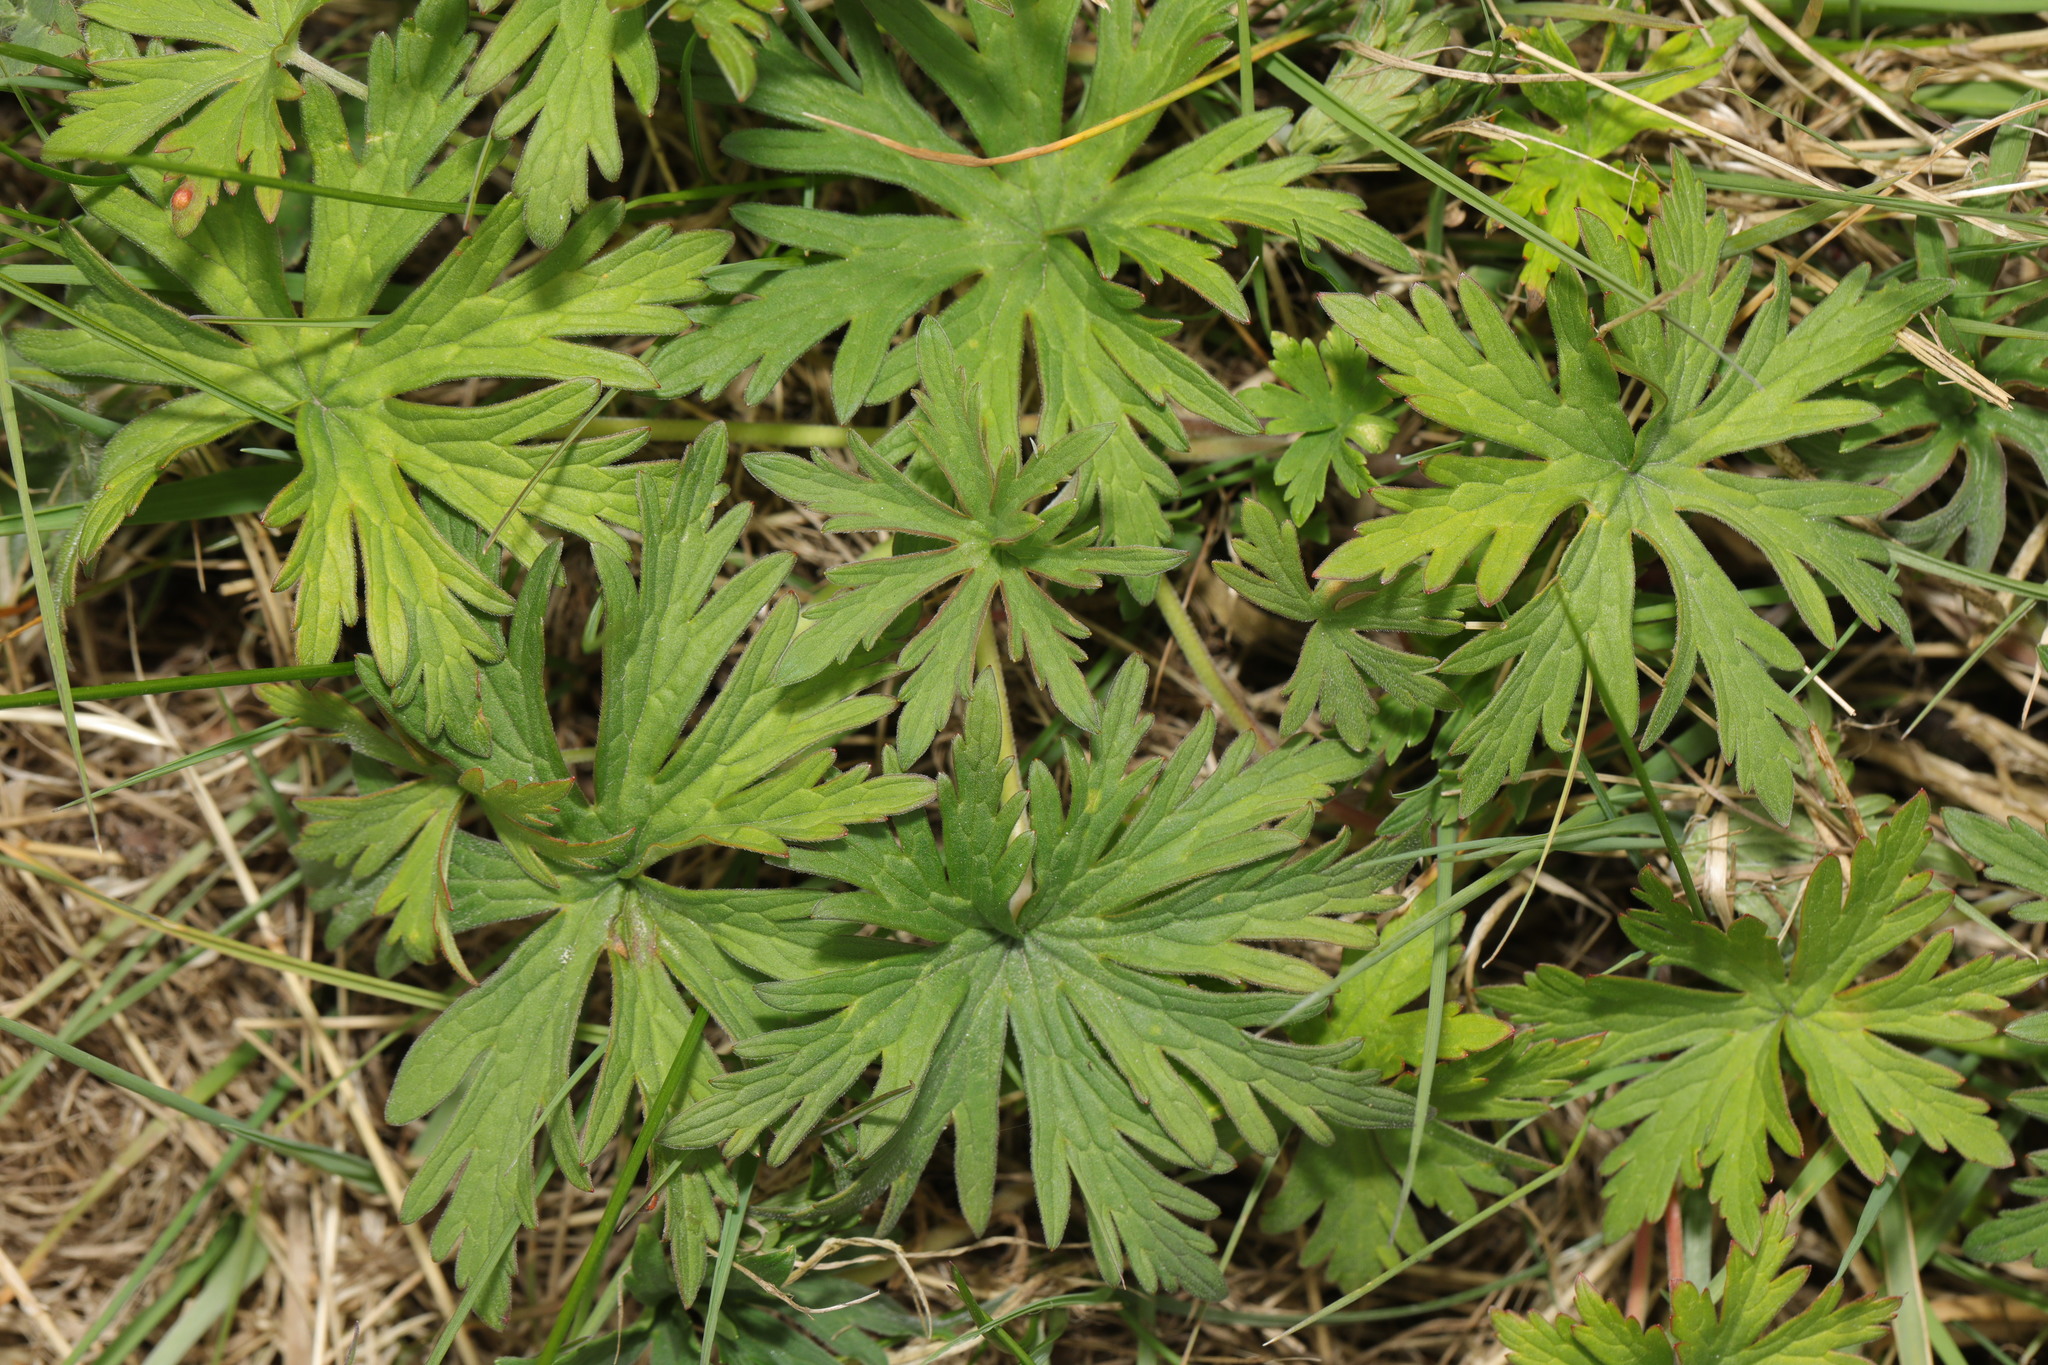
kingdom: Plantae
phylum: Tracheophyta
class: Magnoliopsida
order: Geraniales
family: Geraniaceae
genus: Geranium
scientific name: Geranium pratense
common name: Meadow crane's-bill
